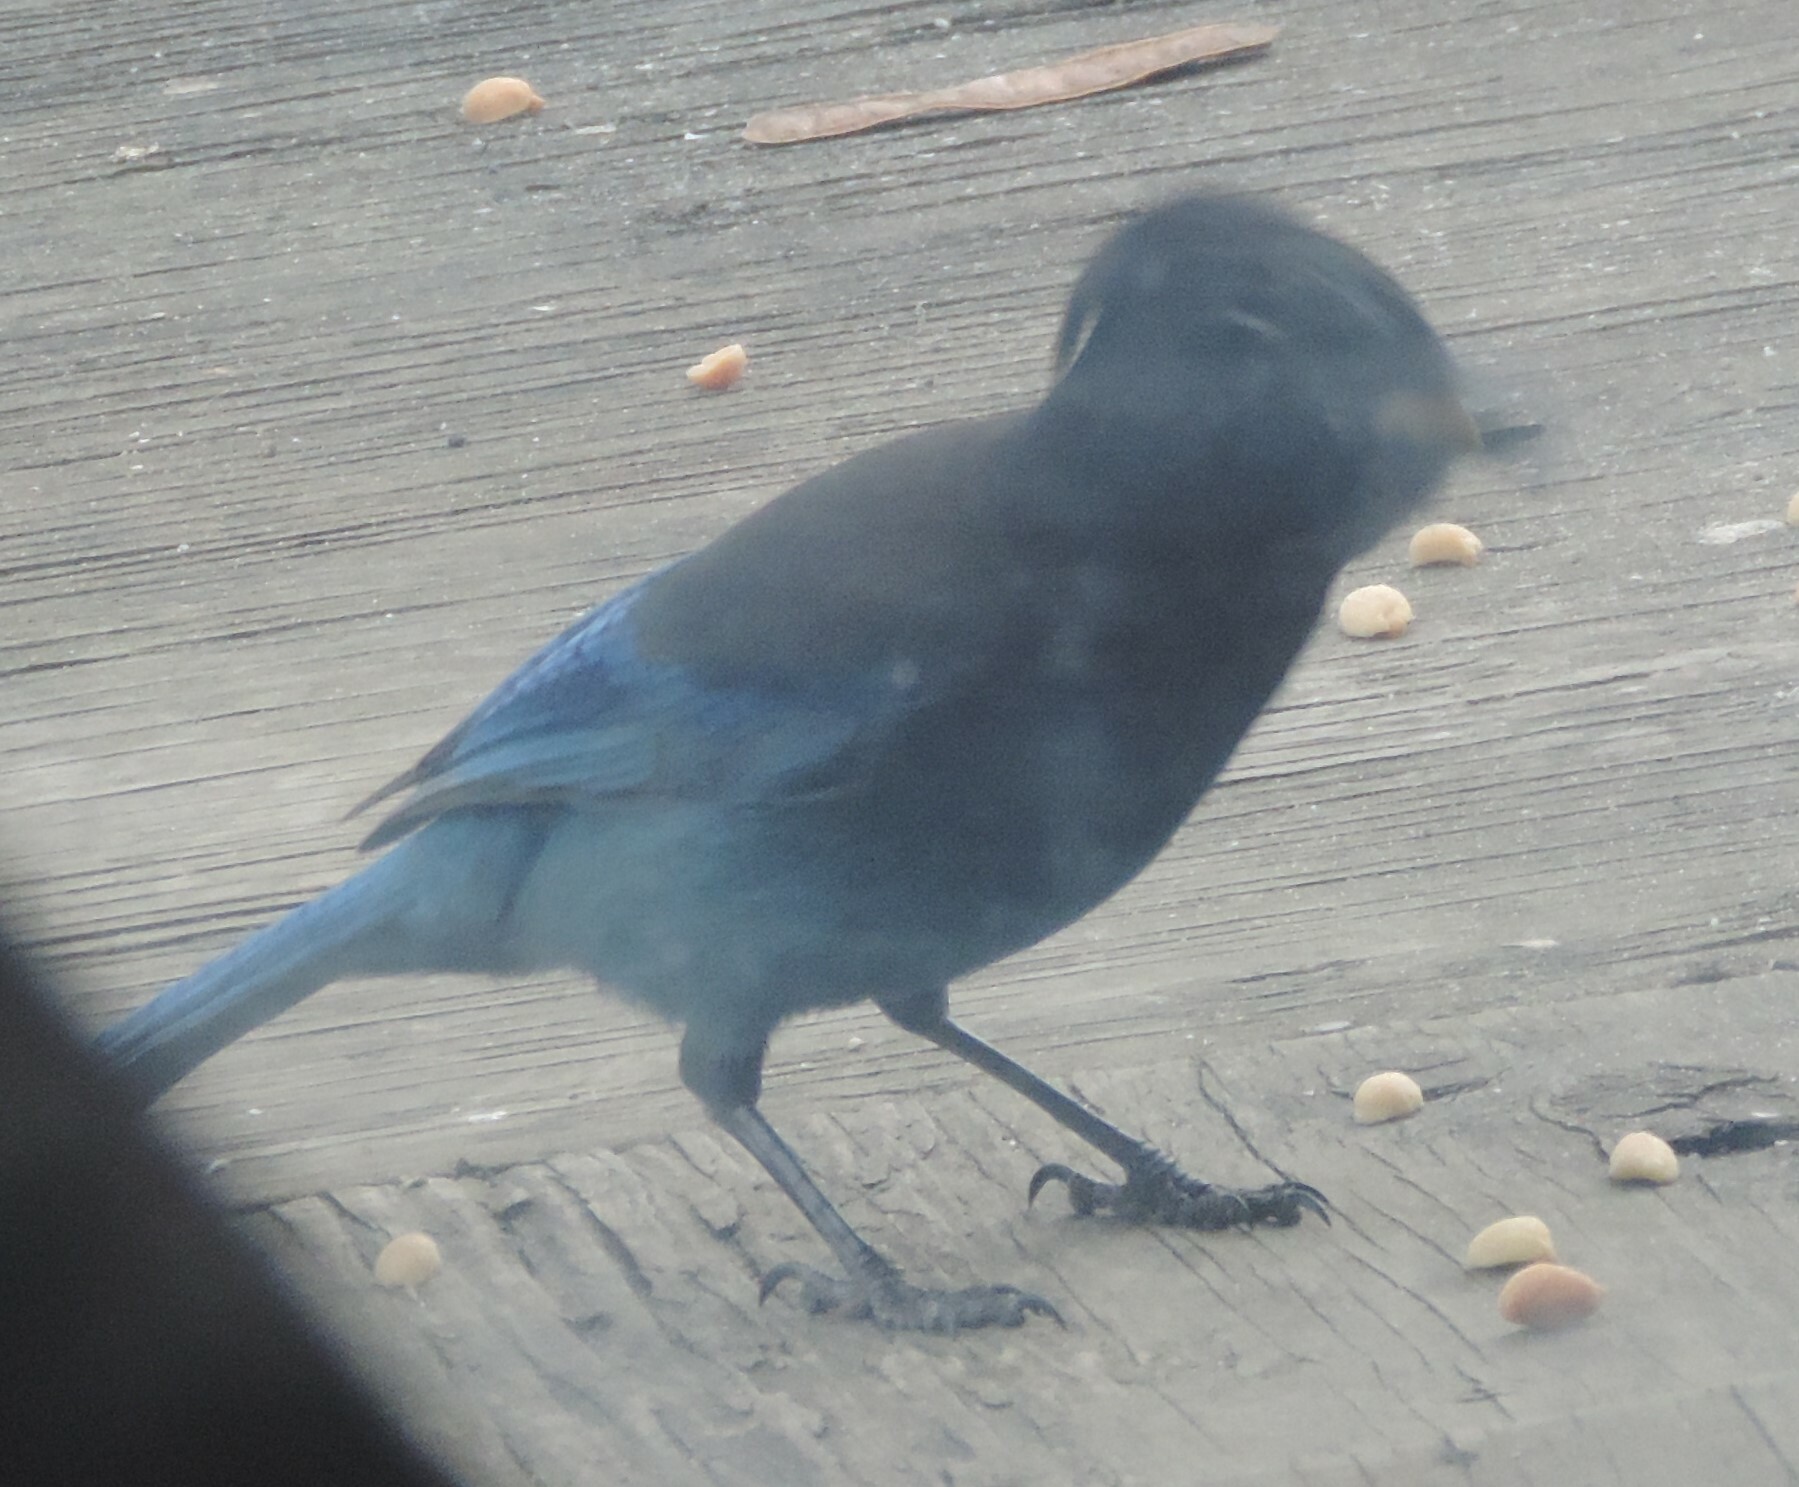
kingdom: Animalia
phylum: Chordata
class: Aves
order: Passeriformes
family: Corvidae
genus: Cyanocitta
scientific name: Cyanocitta stelleri
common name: Steller's jay
